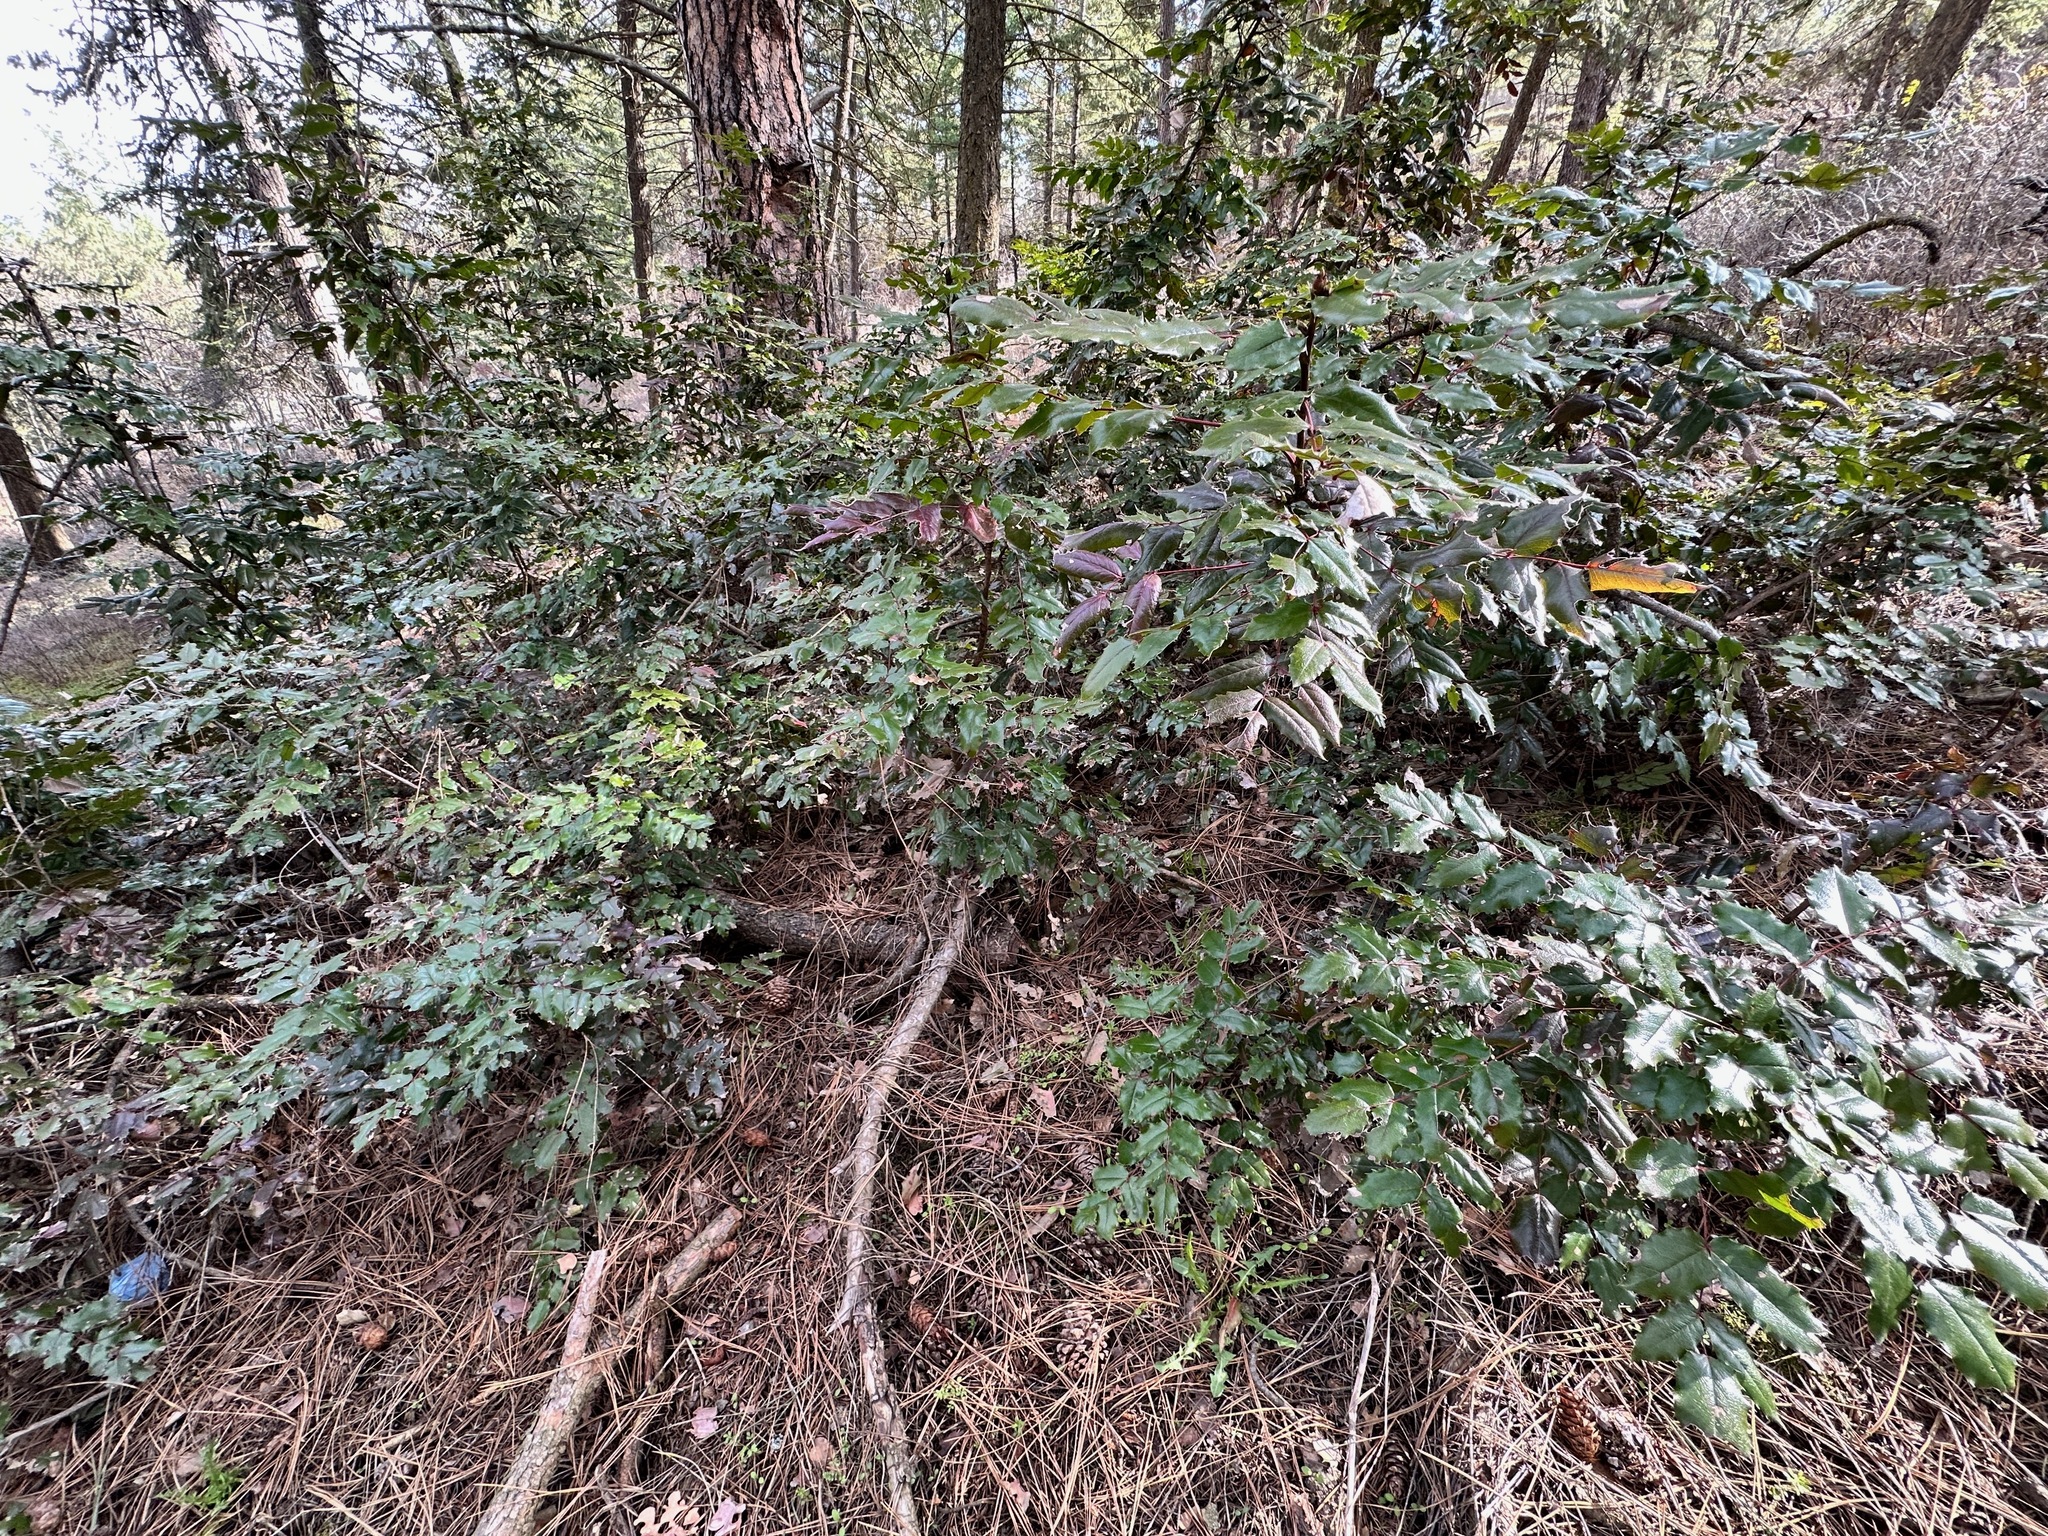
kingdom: Plantae
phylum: Tracheophyta
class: Magnoliopsida
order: Ranunculales
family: Berberidaceae
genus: Mahonia
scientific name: Mahonia aquifolium
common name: Oregon-grape
